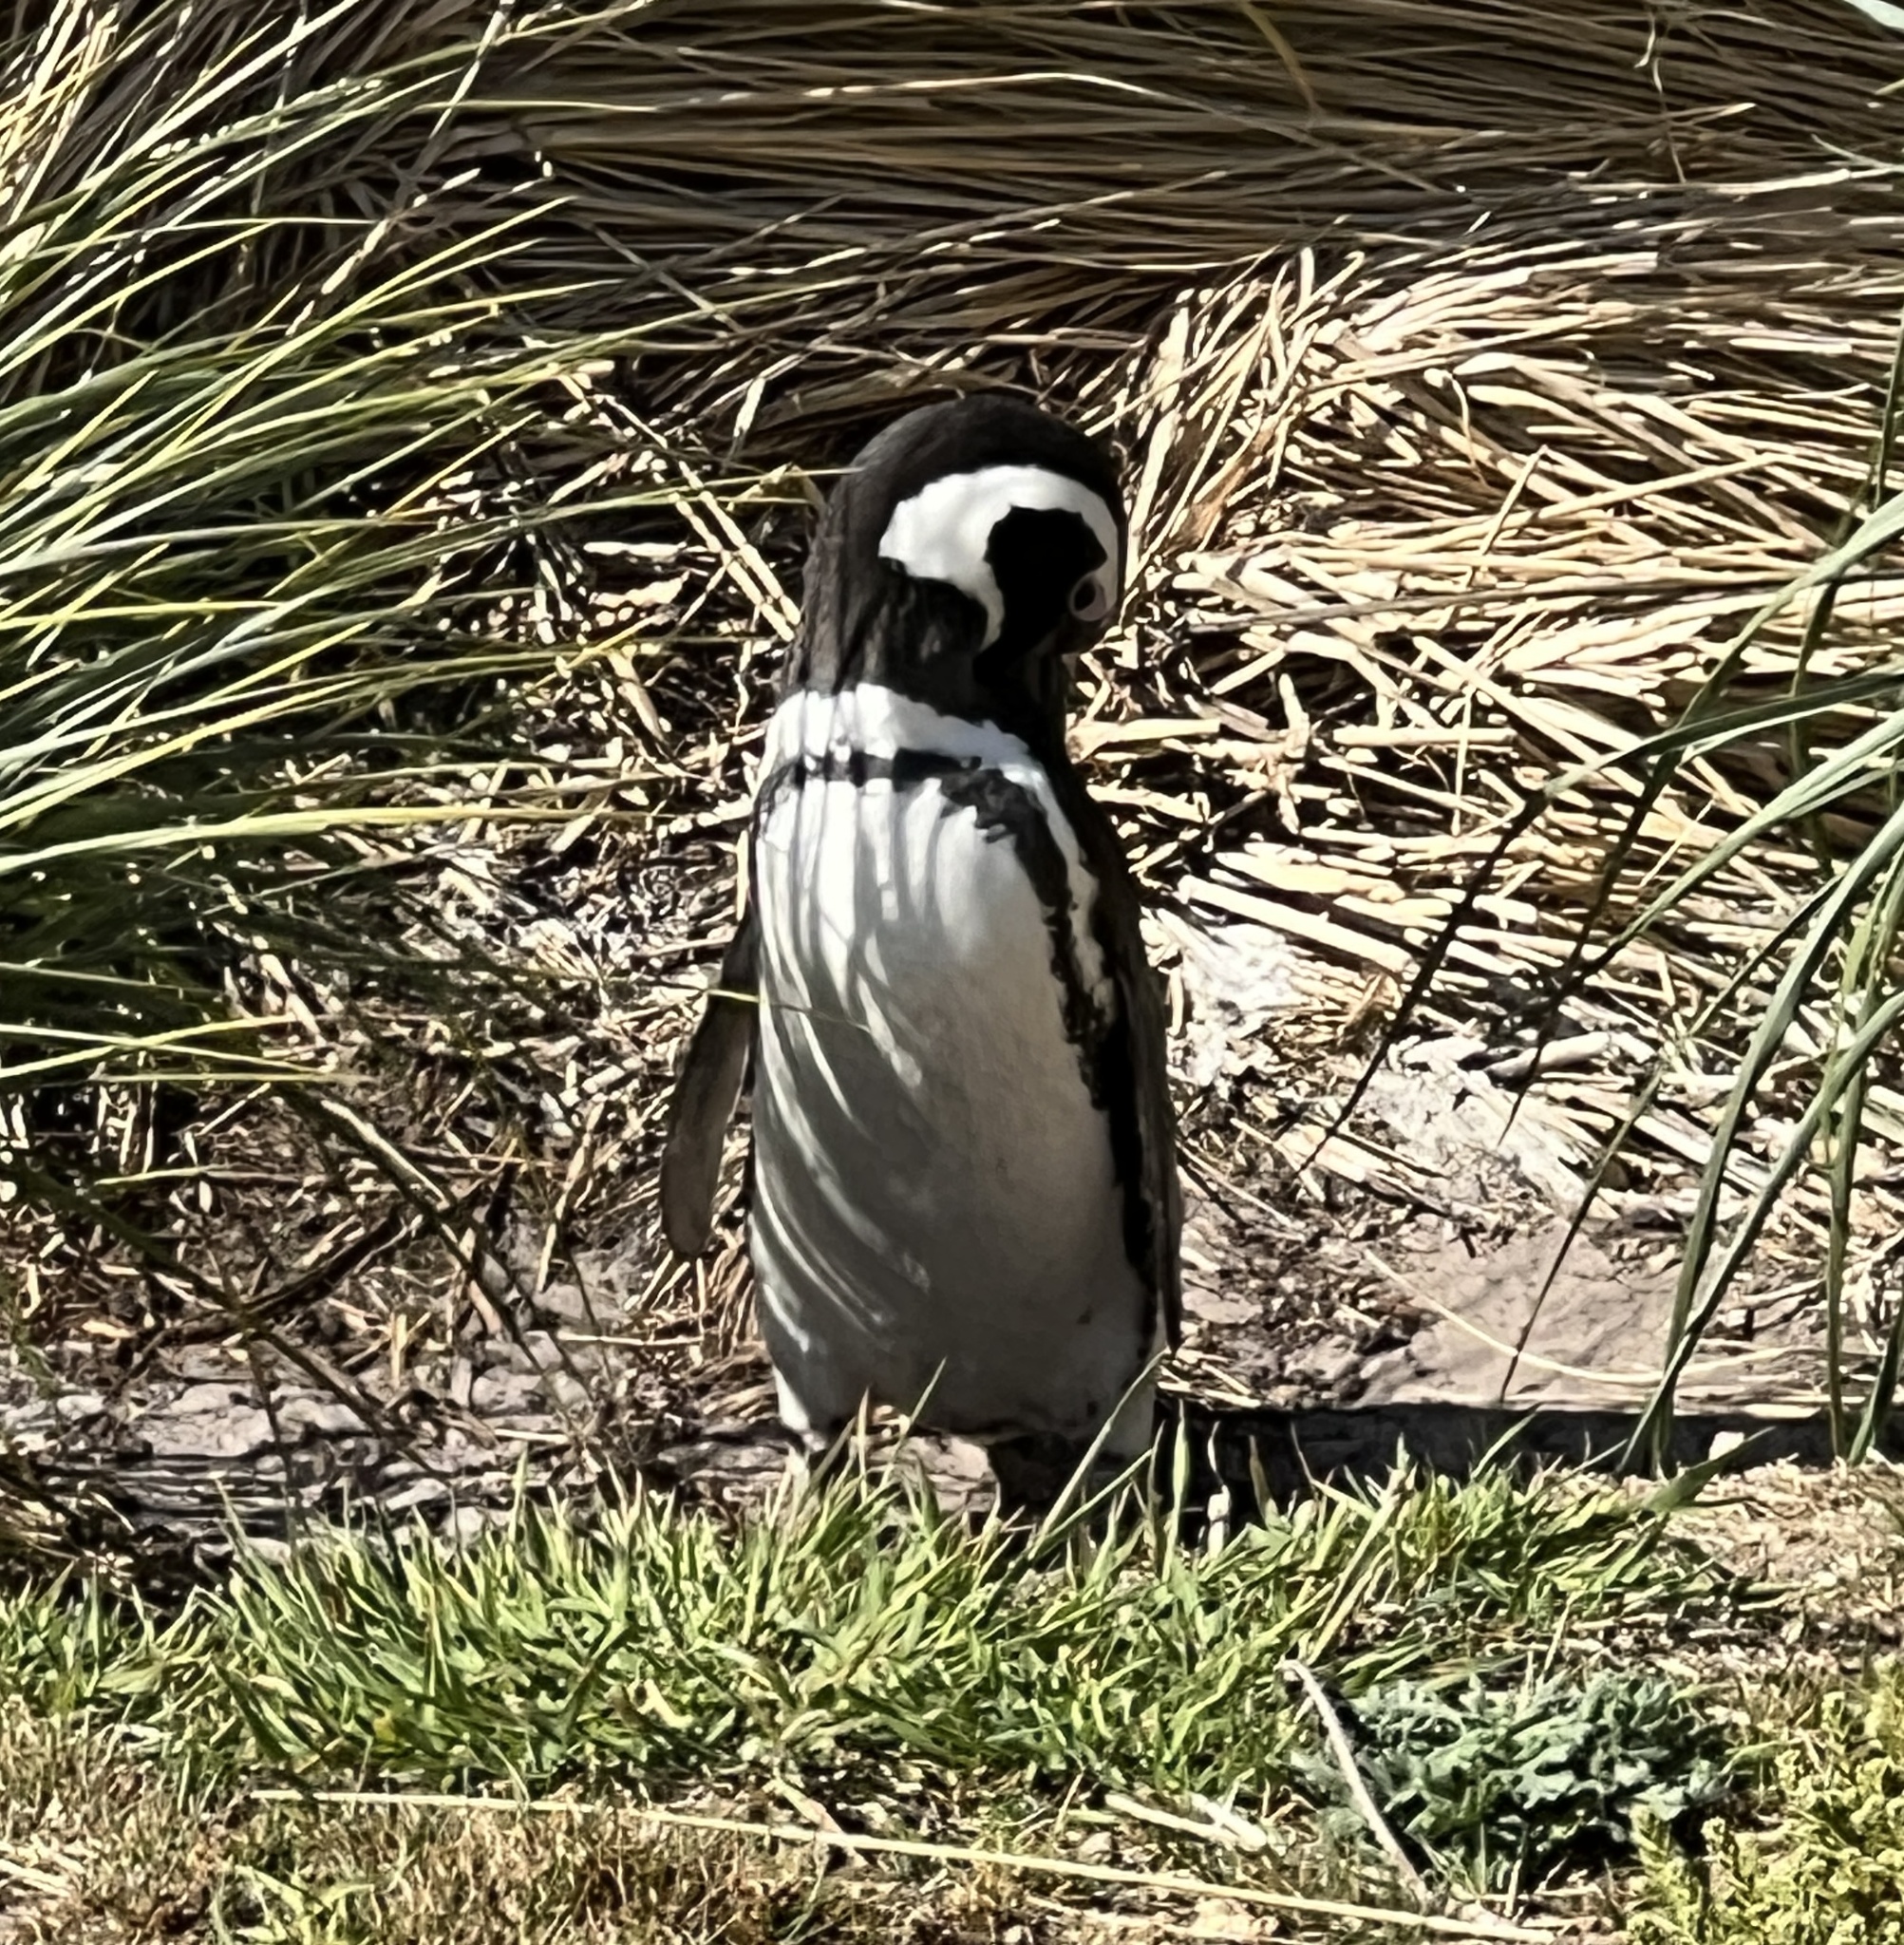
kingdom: Animalia
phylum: Chordata
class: Aves
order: Sphenisciformes
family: Spheniscidae
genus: Spheniscus
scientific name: Spheniscus magellanicus
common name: Magellanic penguin
